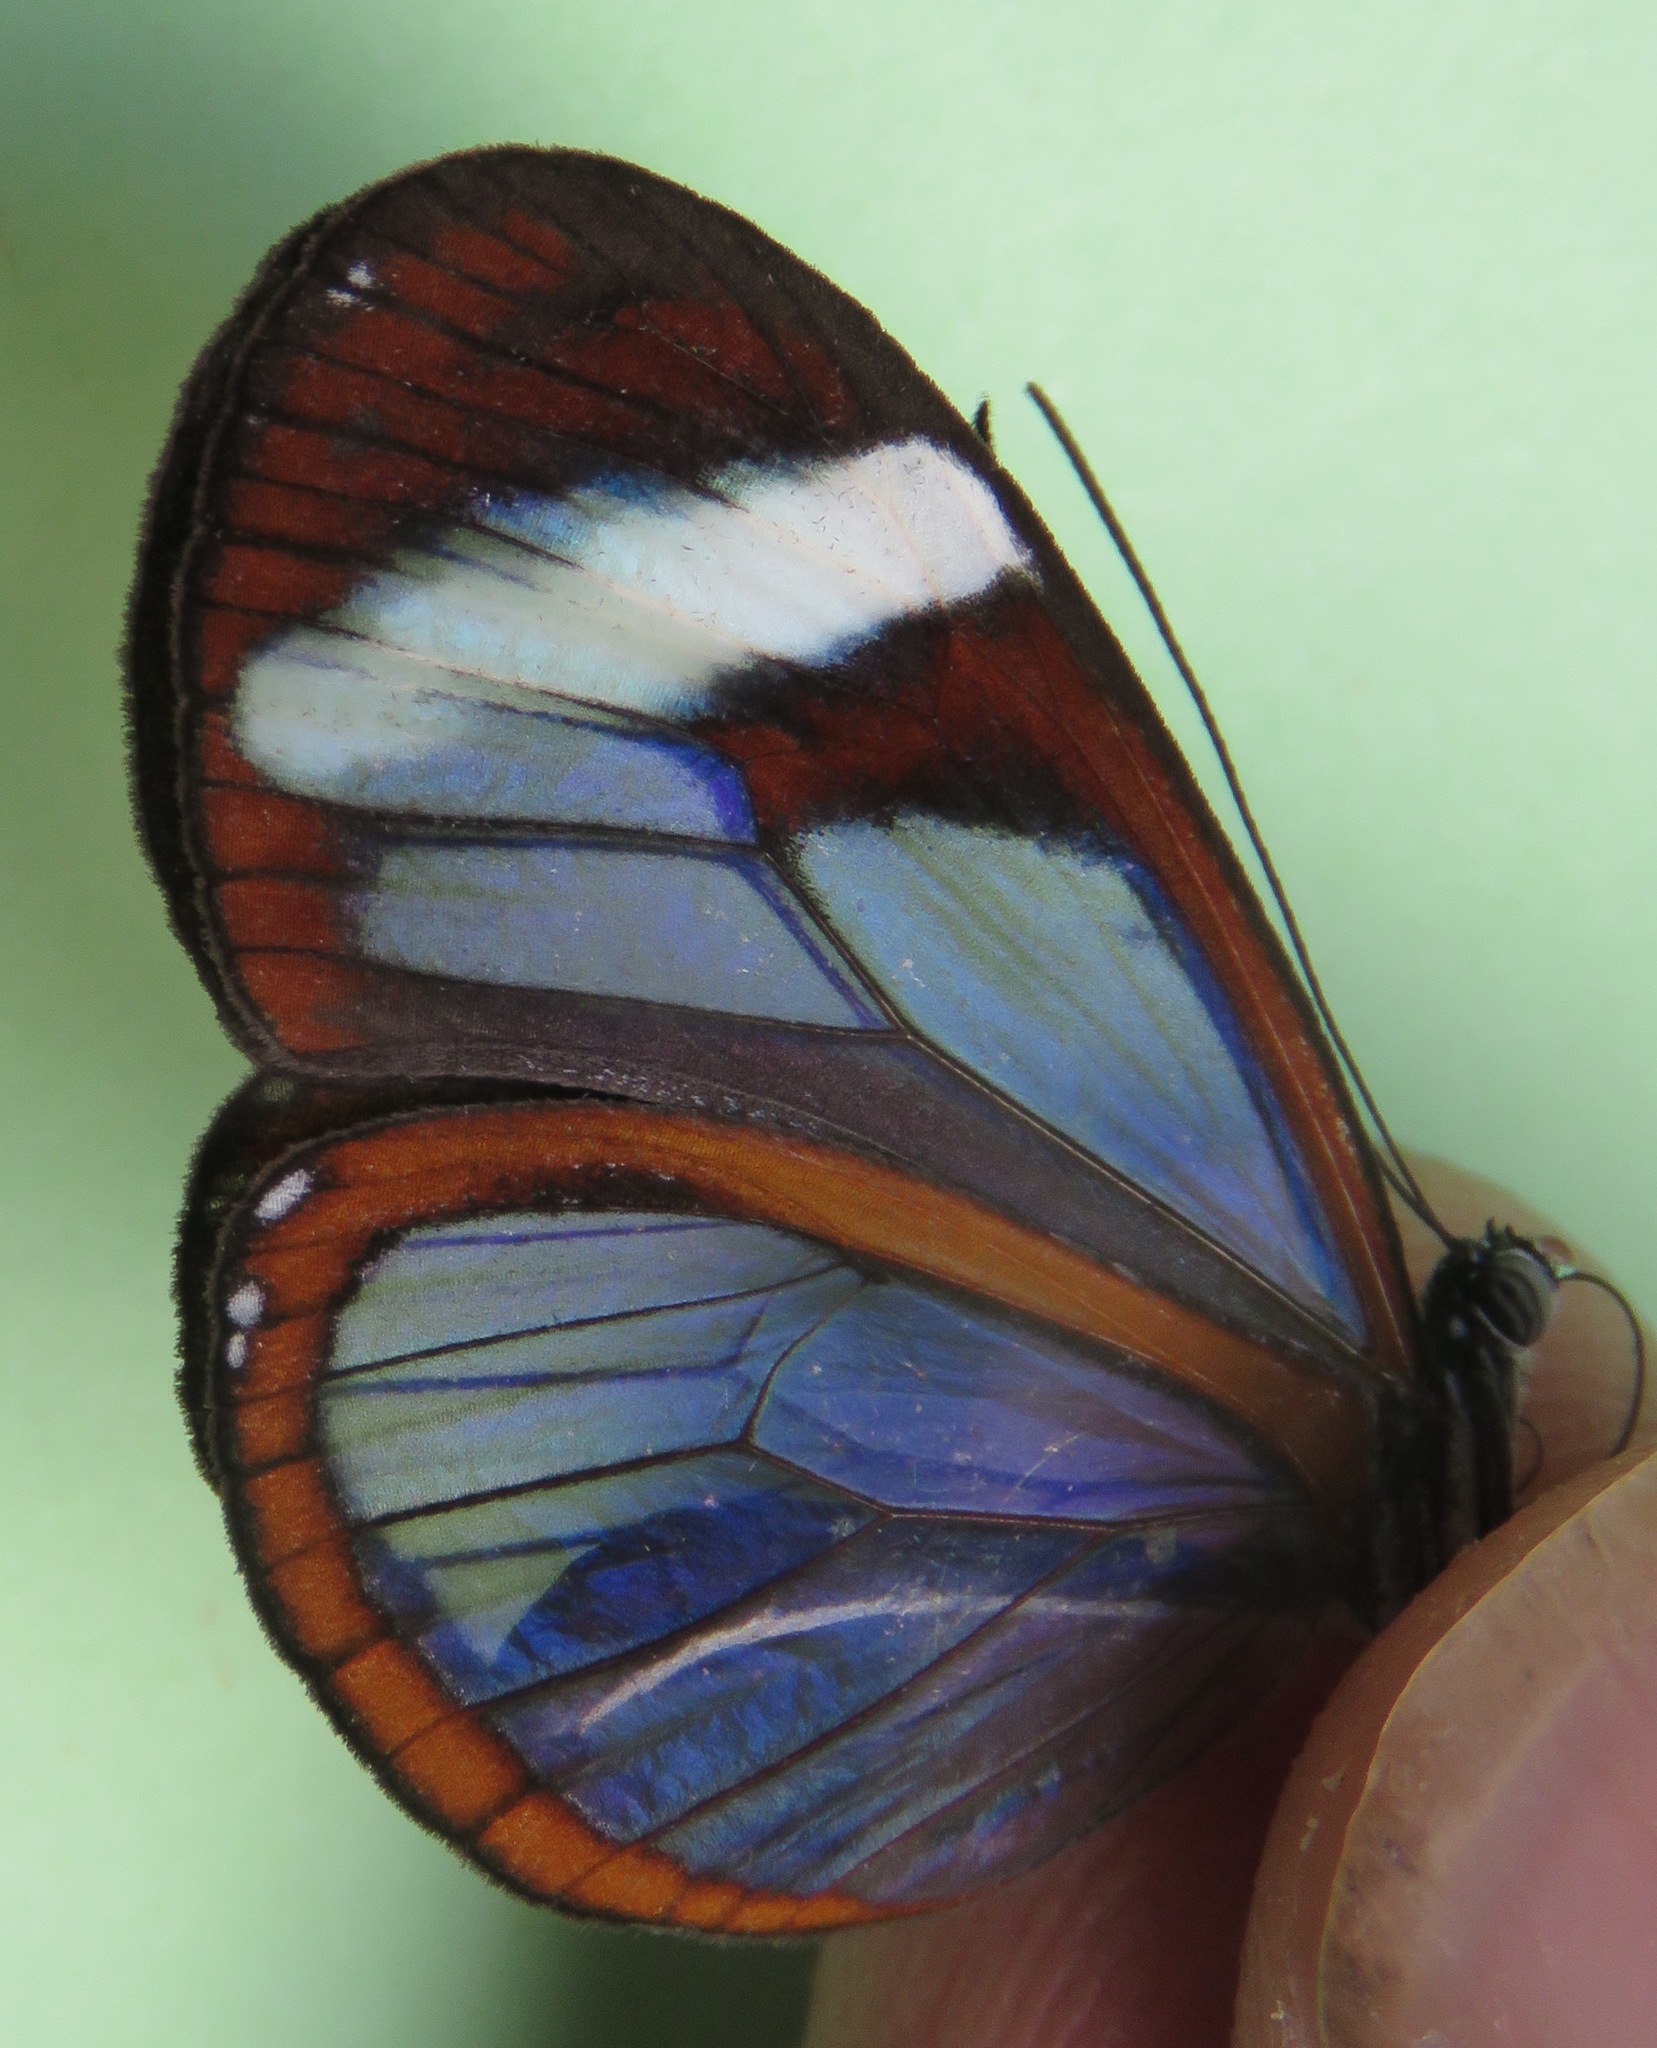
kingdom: Animalia
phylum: Arthropoda
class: Insecta
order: Lepidoptera
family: Nymphalidae
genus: Oleria
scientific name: Oleria paula
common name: Paula's clearwing
